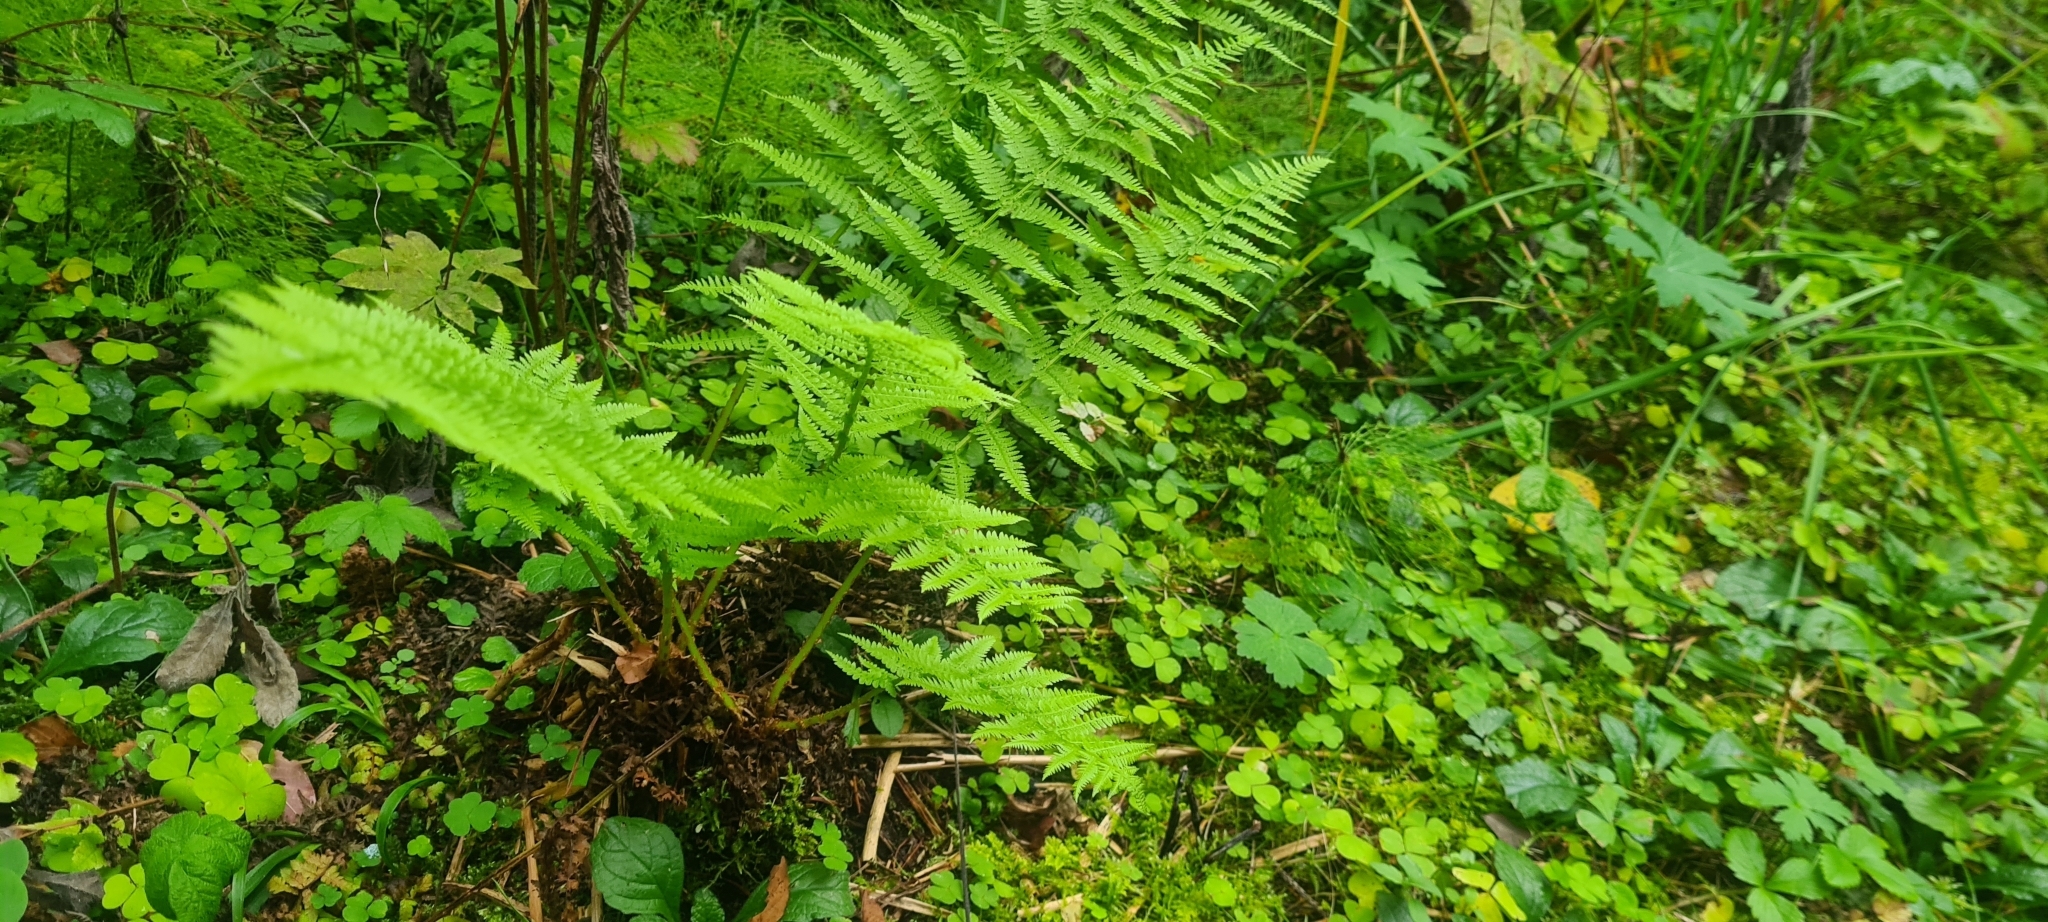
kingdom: Plantae
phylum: Tracheophyta
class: Polypodiopsida
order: Polypodiales
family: Athyriaceae
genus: Athyrium
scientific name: Athyrium filix-femina
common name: Lady fern
